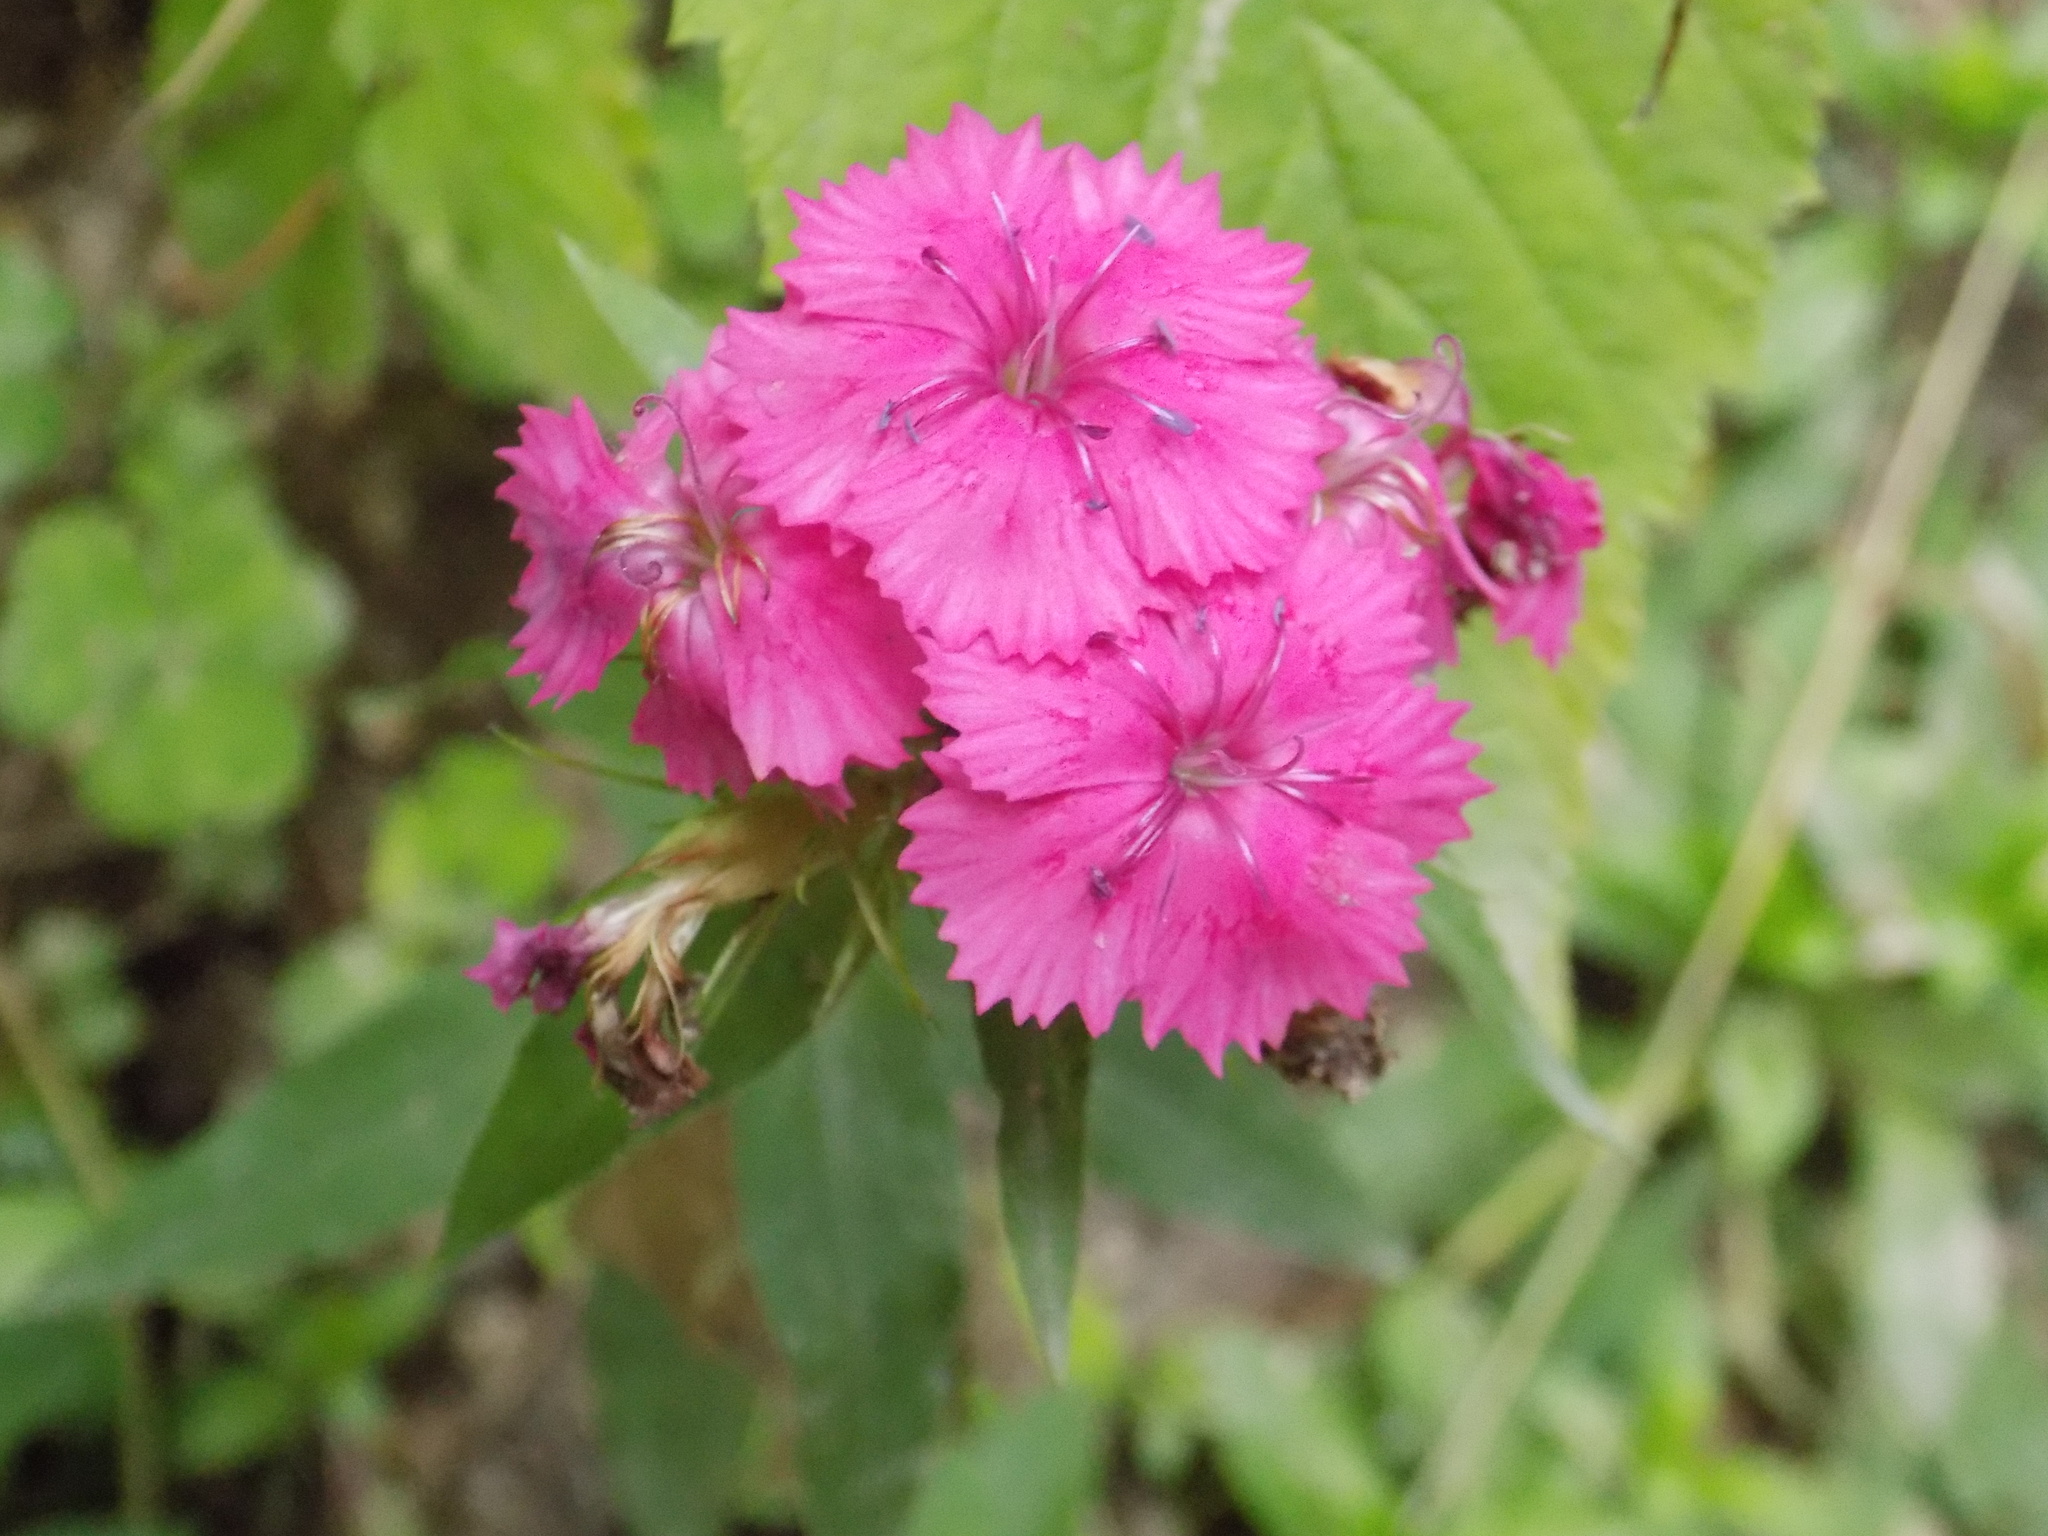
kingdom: Plantae
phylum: Tracheophyta
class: Magnoliopsida
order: Caryophyllales
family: Caryophyllaceae
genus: Dianthus
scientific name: Dianthus barbatus
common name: Sweet-william
